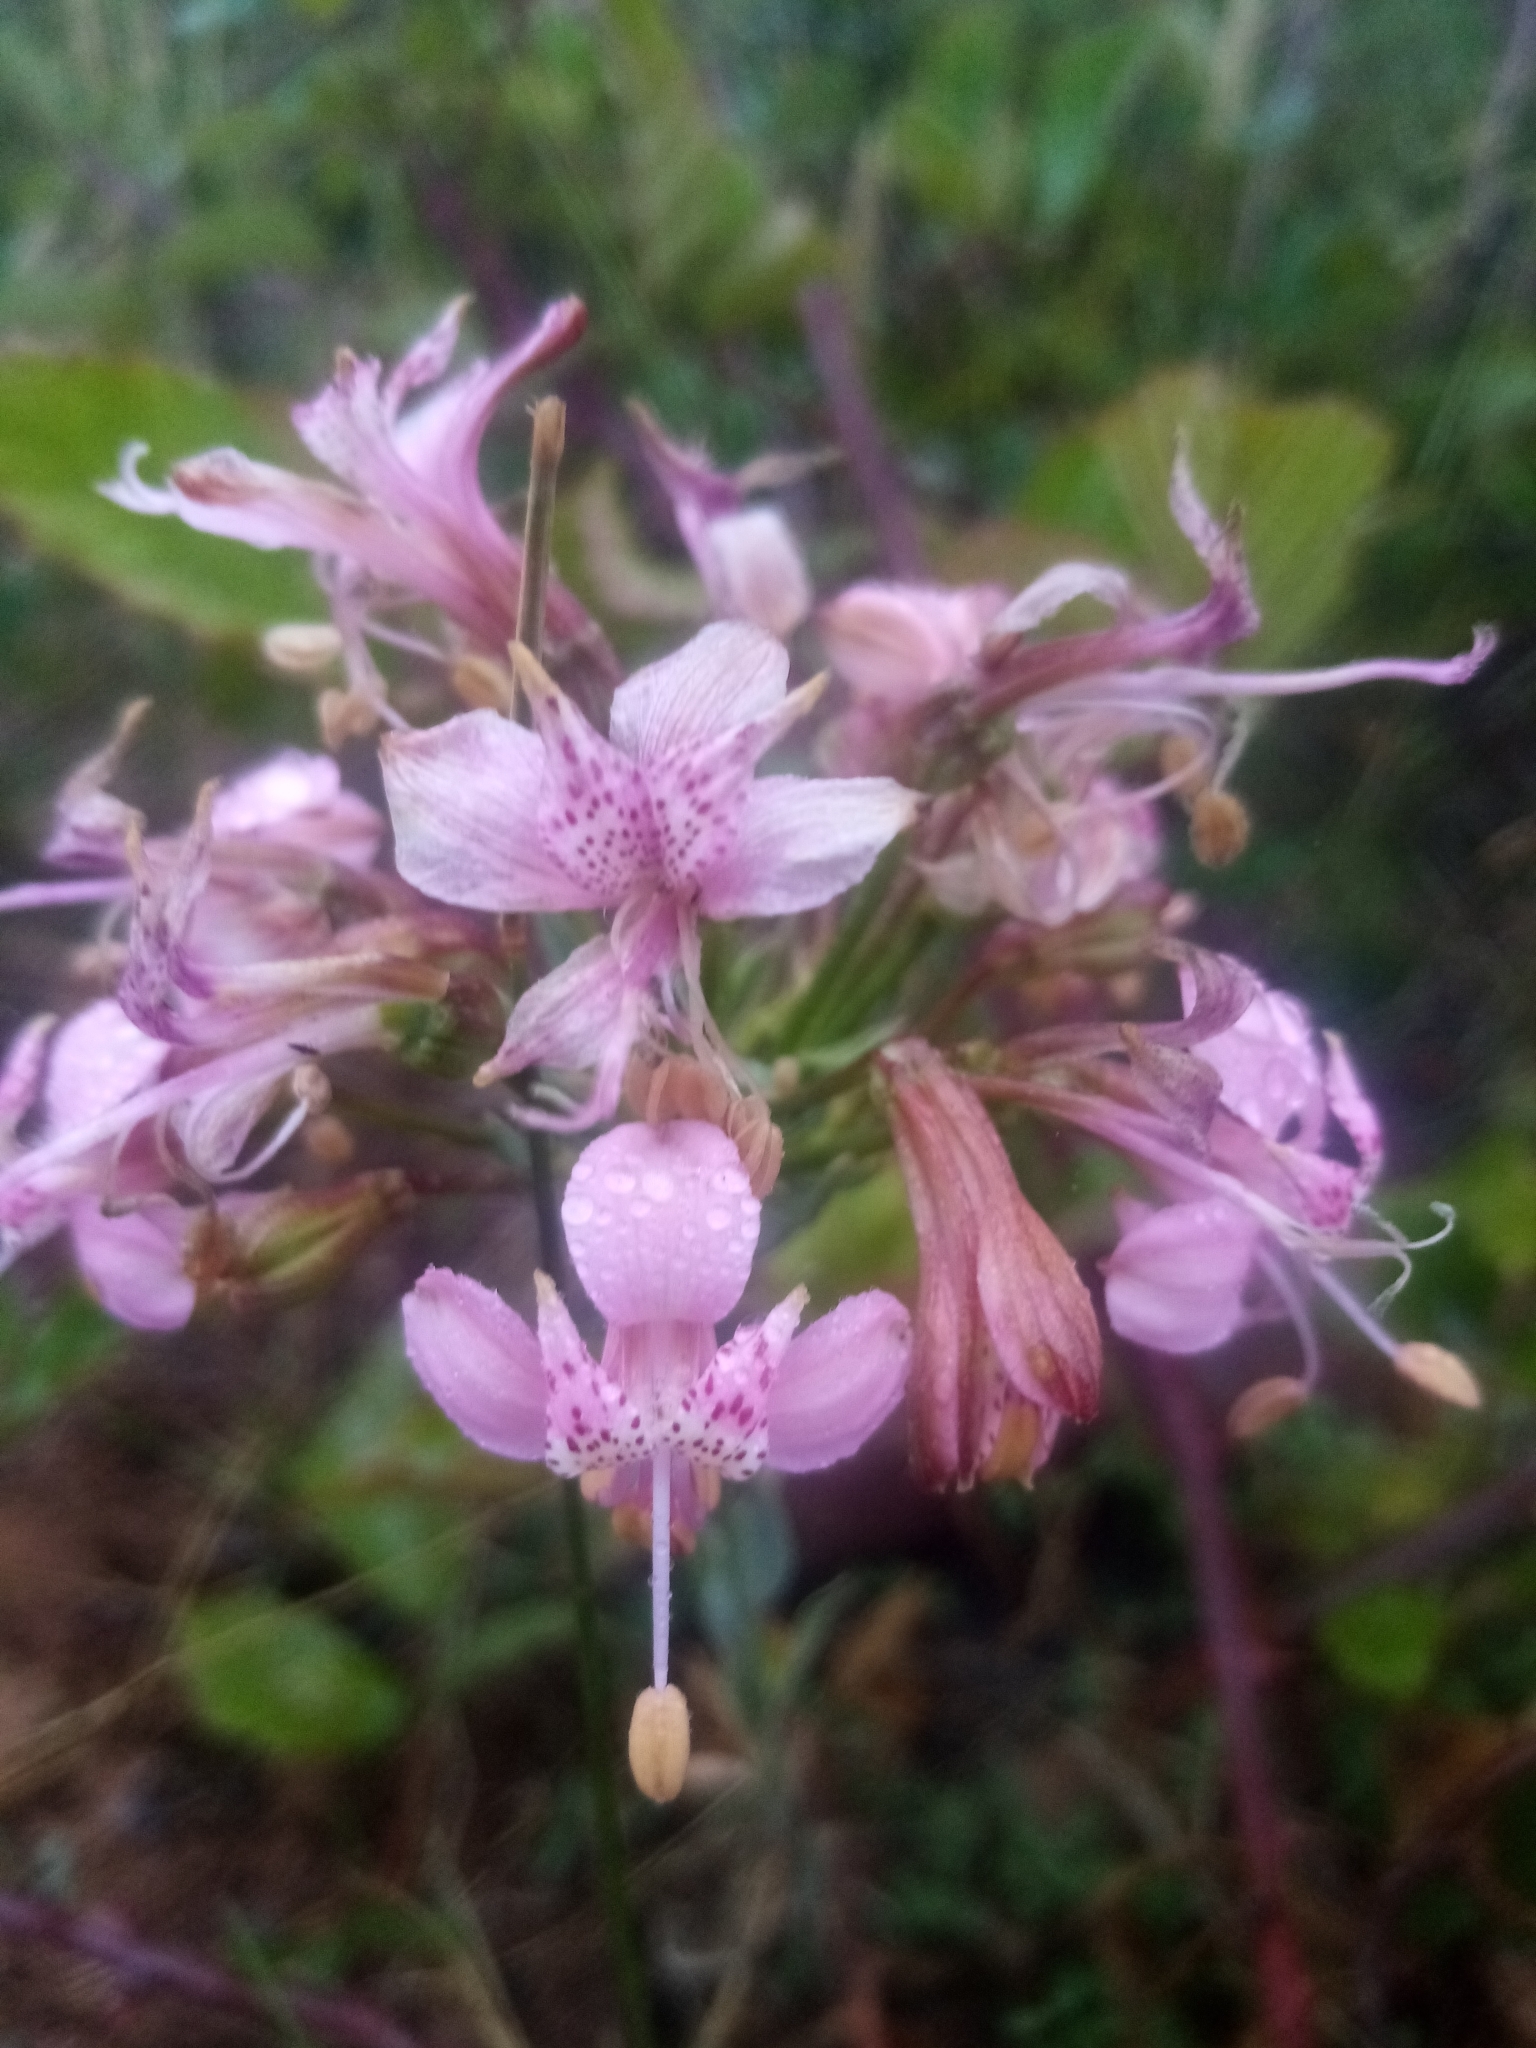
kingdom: Plantae
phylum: Tracheophyta
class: Liliopsida
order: Liliales
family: Alstroemeriaceae
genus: Alstroemeria
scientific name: Alstroemeria revoluta
